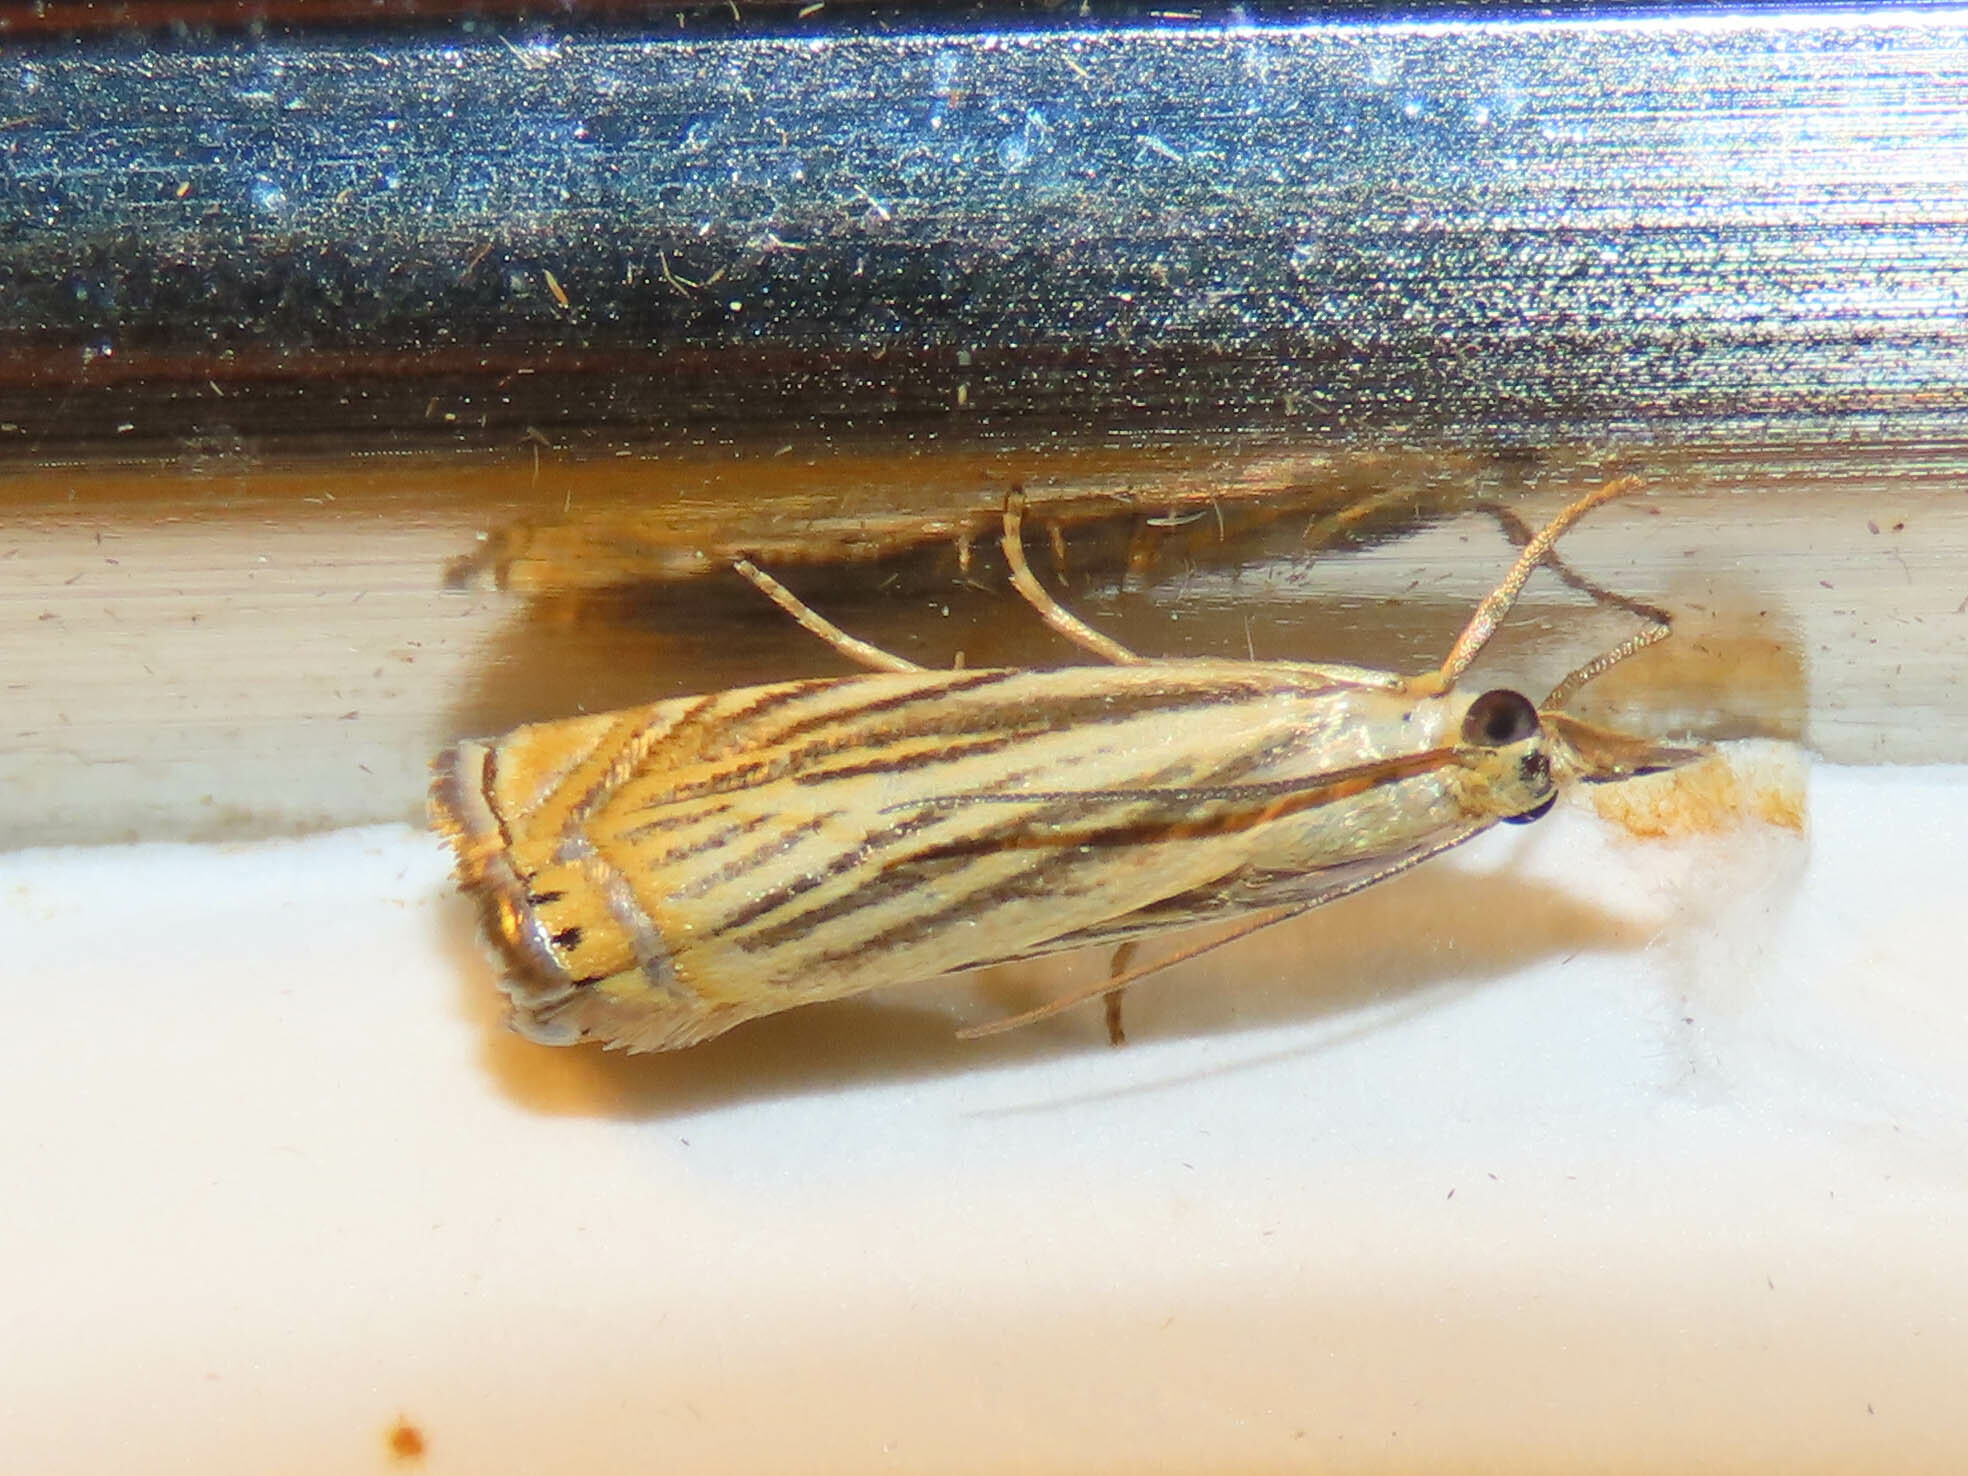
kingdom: Animalia
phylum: Arthropoda
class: Insecta
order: Lepidoptera
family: Crambidae
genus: Chrysoteuchia
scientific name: Chrysoteuchia topiarius
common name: Topiary grass-veneer
